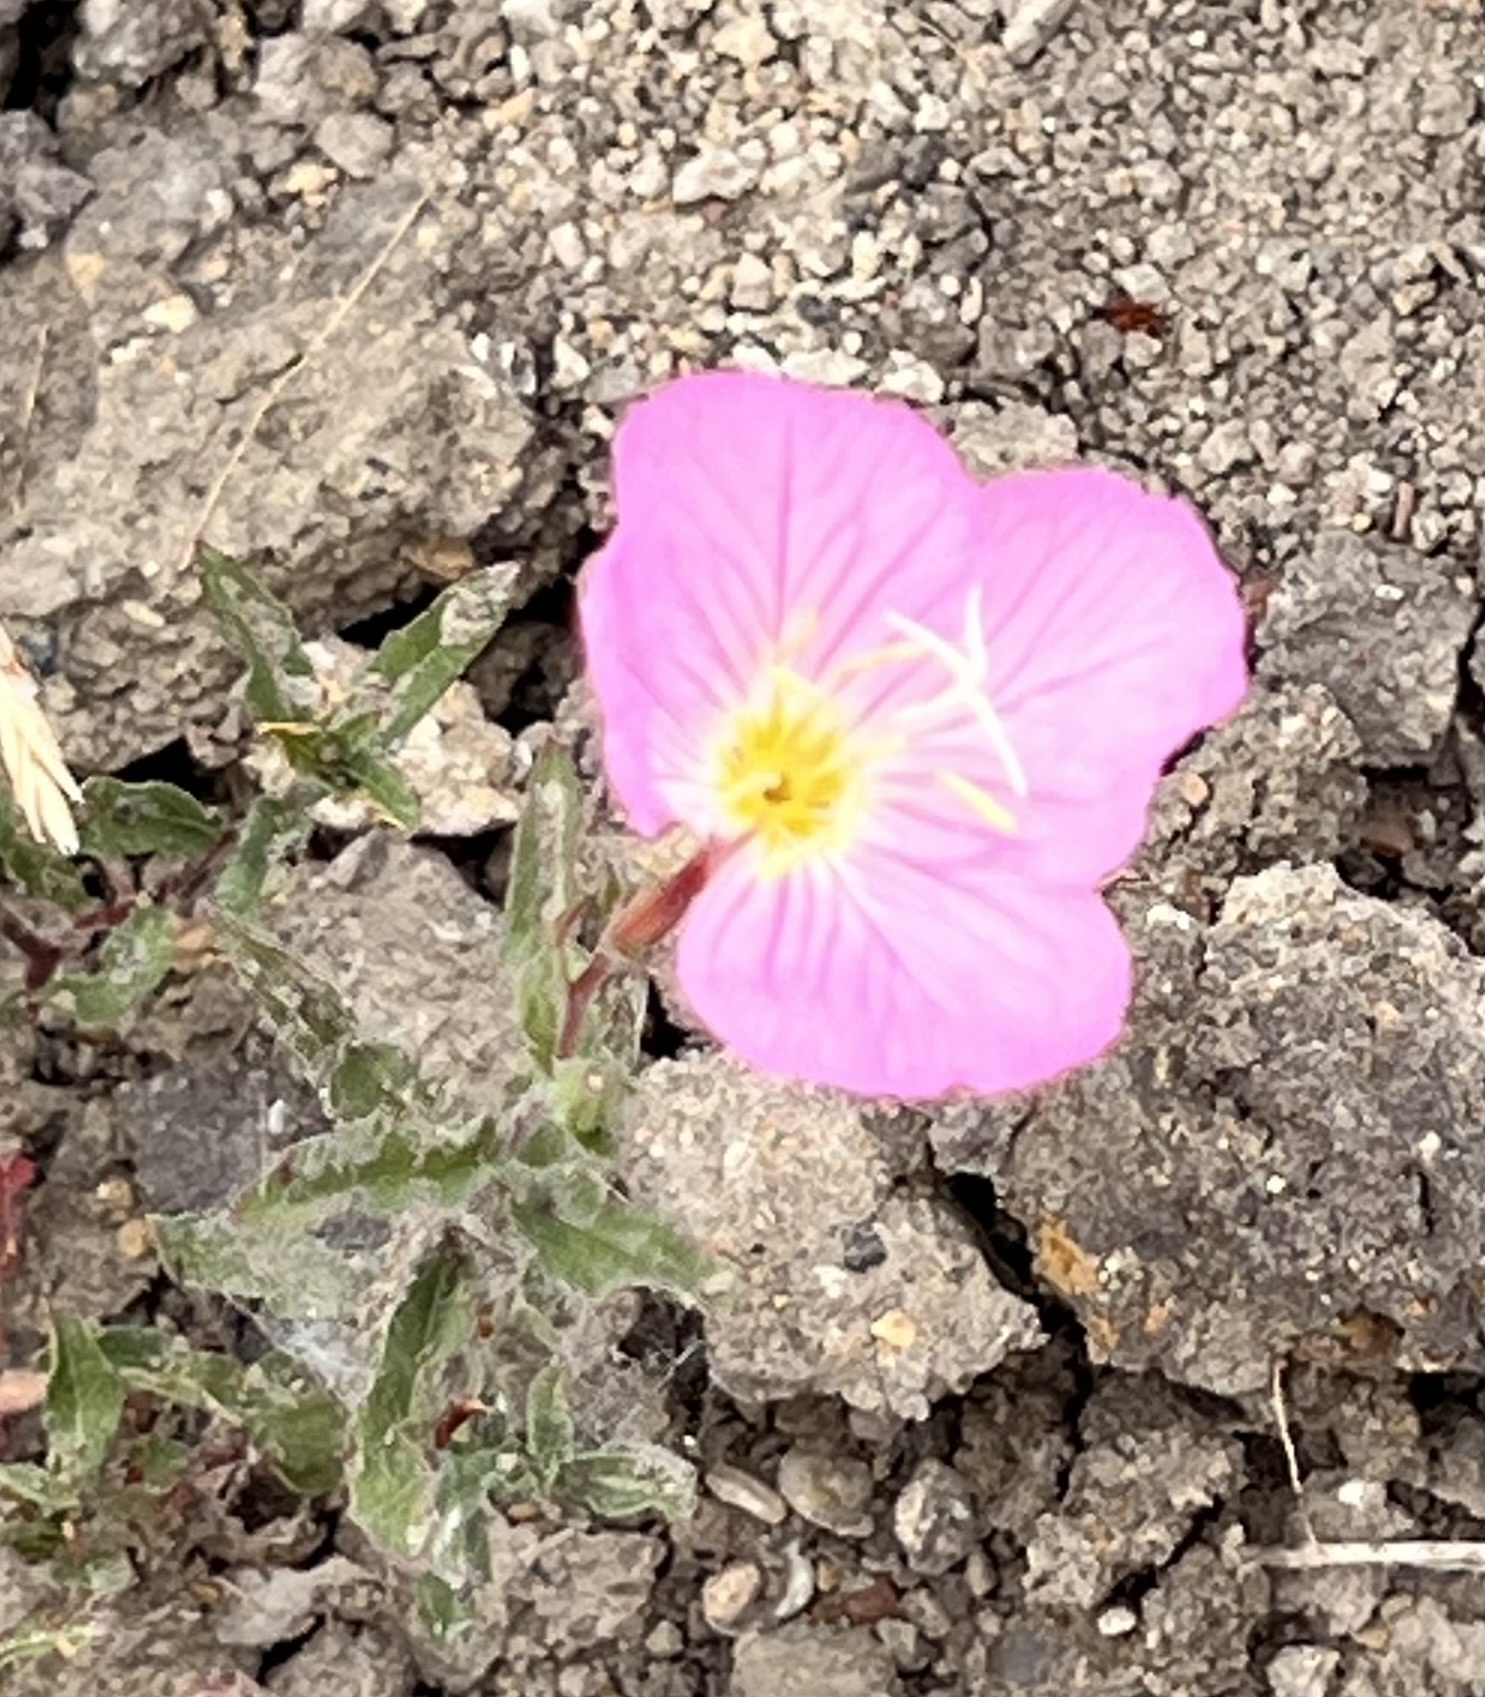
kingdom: Plantae
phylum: Tracheophyta
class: Magnoliopsida
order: Myrtales
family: Onagraceae
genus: Oenothera
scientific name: Oenothera speciosa
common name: White evening-primrose
